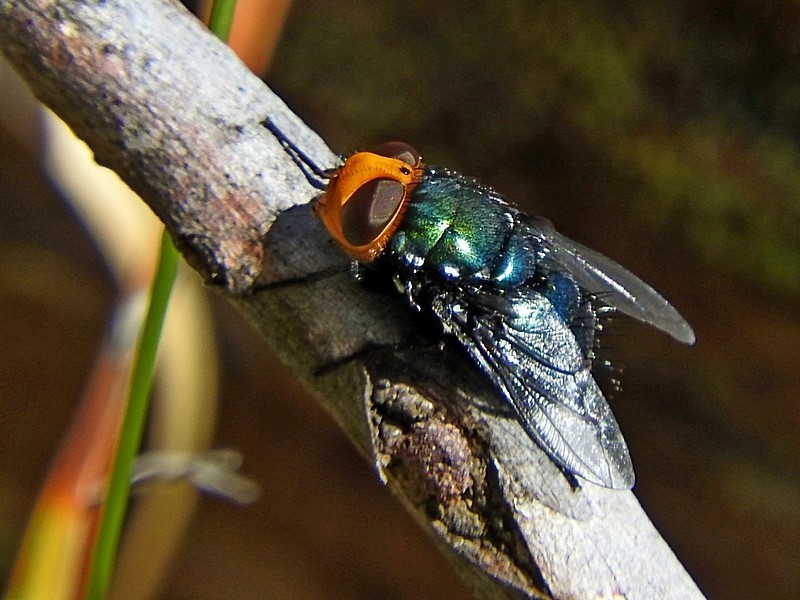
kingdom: Animalia
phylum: Arthropoda
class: Insecta
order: Diptera
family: Calliphoridae
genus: Amenia
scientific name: Amenia imperialis
